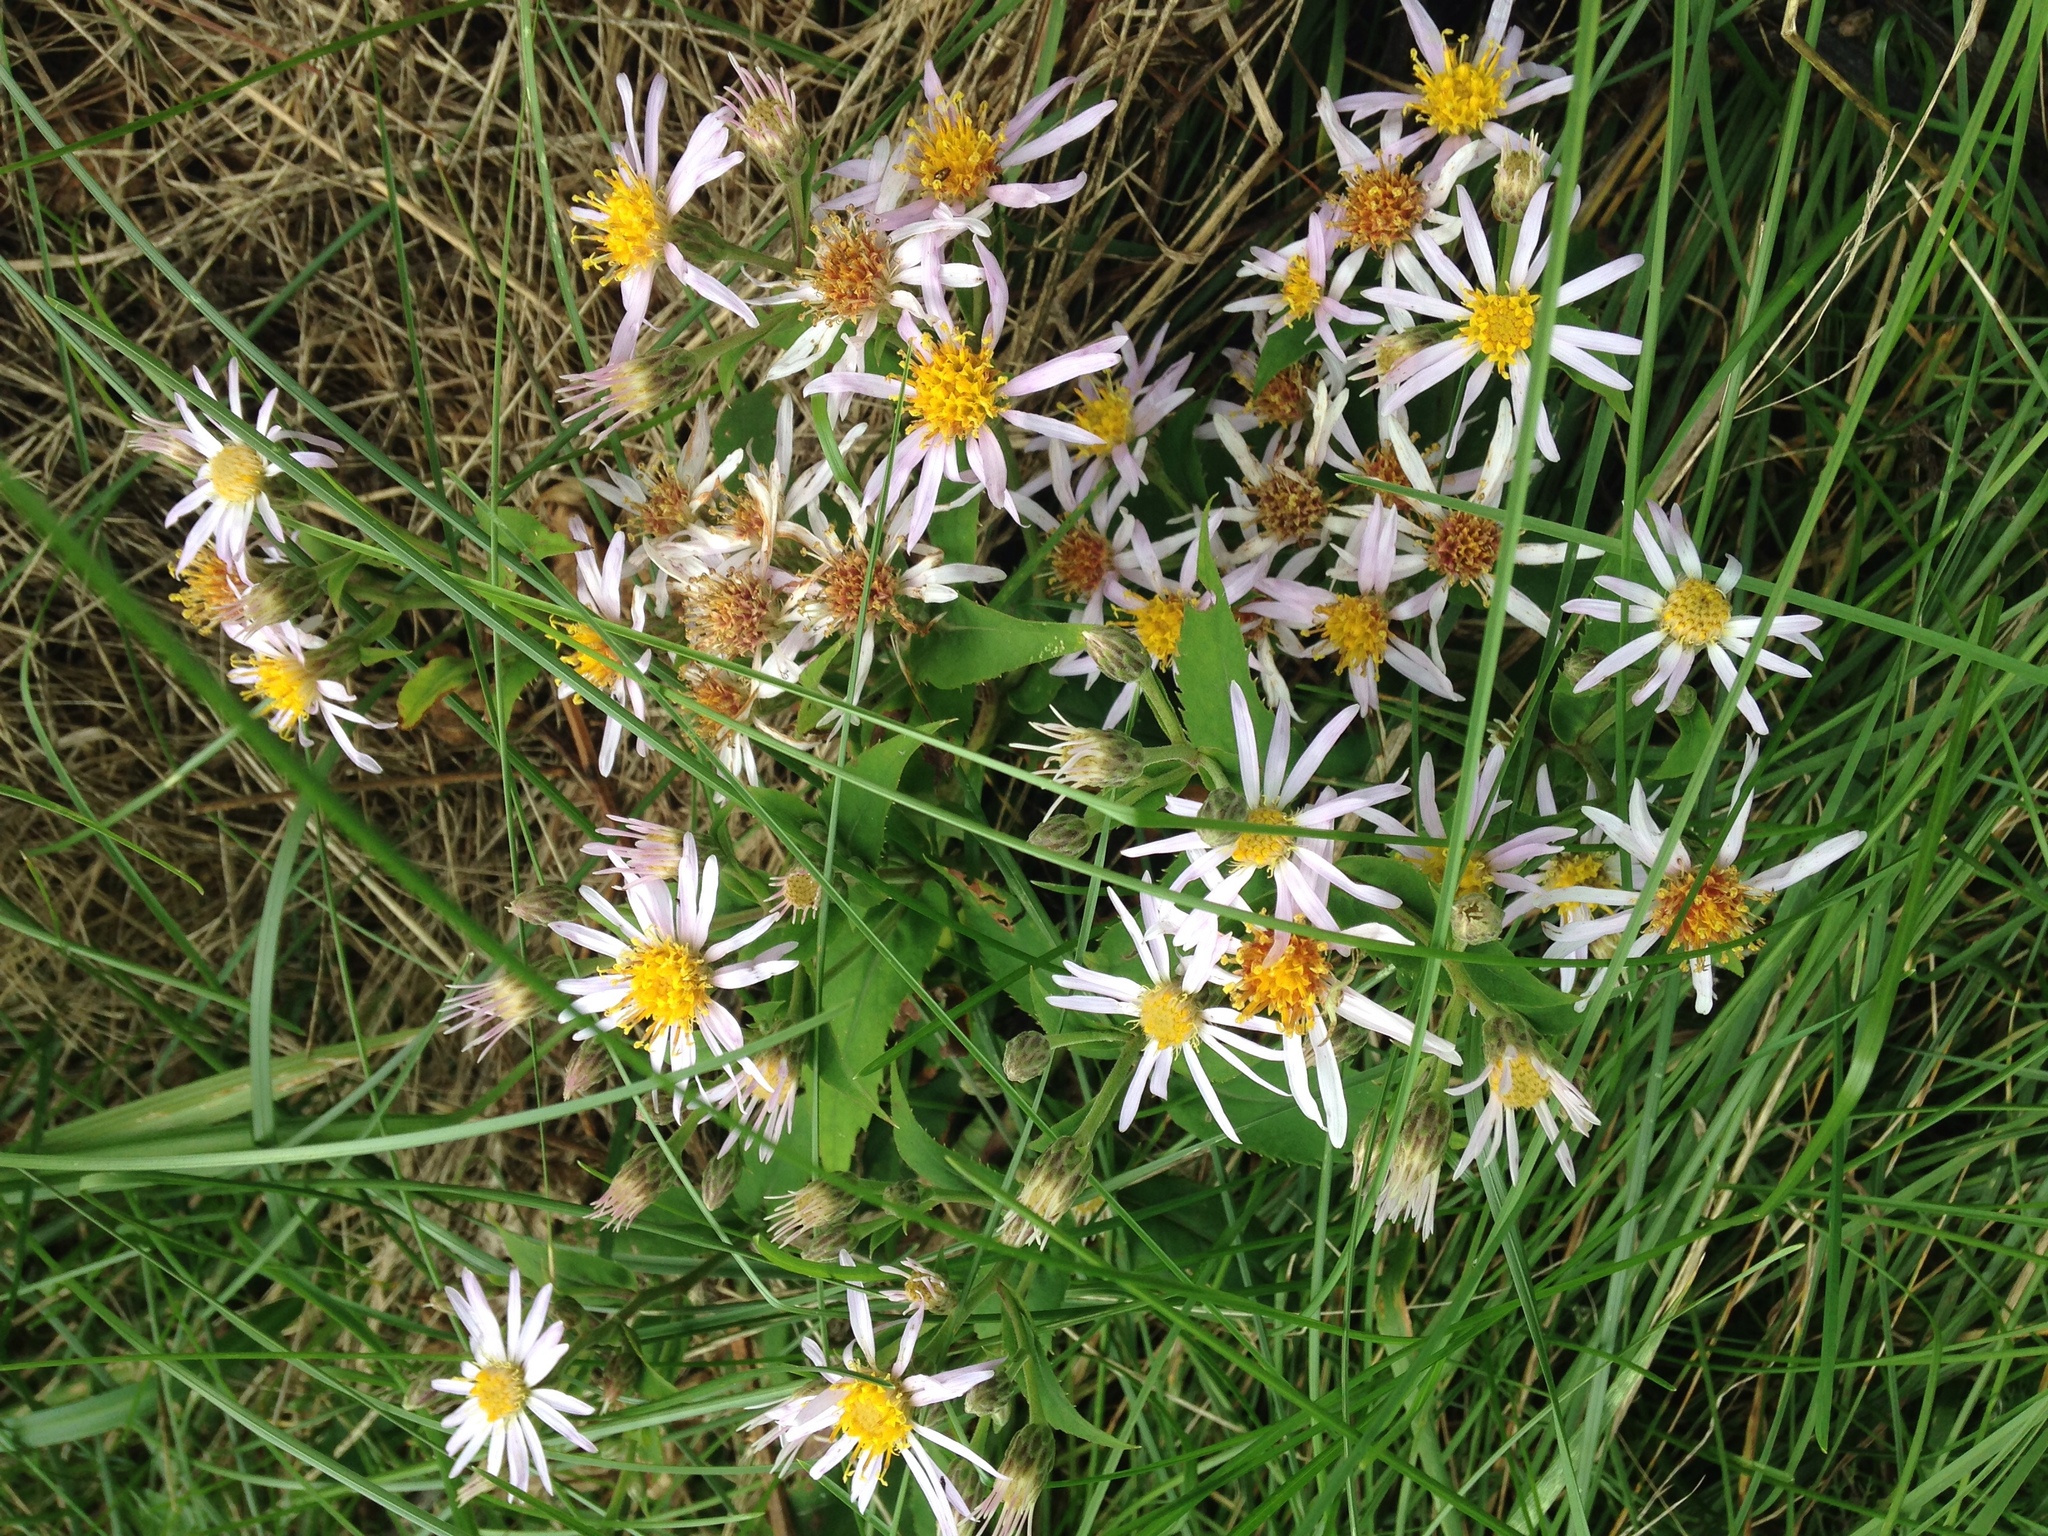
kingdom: Plantae
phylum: Tracheophyta
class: Magnoliopsida
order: Asterales
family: Asteraceae
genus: Eurybia
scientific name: Eurybia macrophylla
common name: Big-leaved aster
